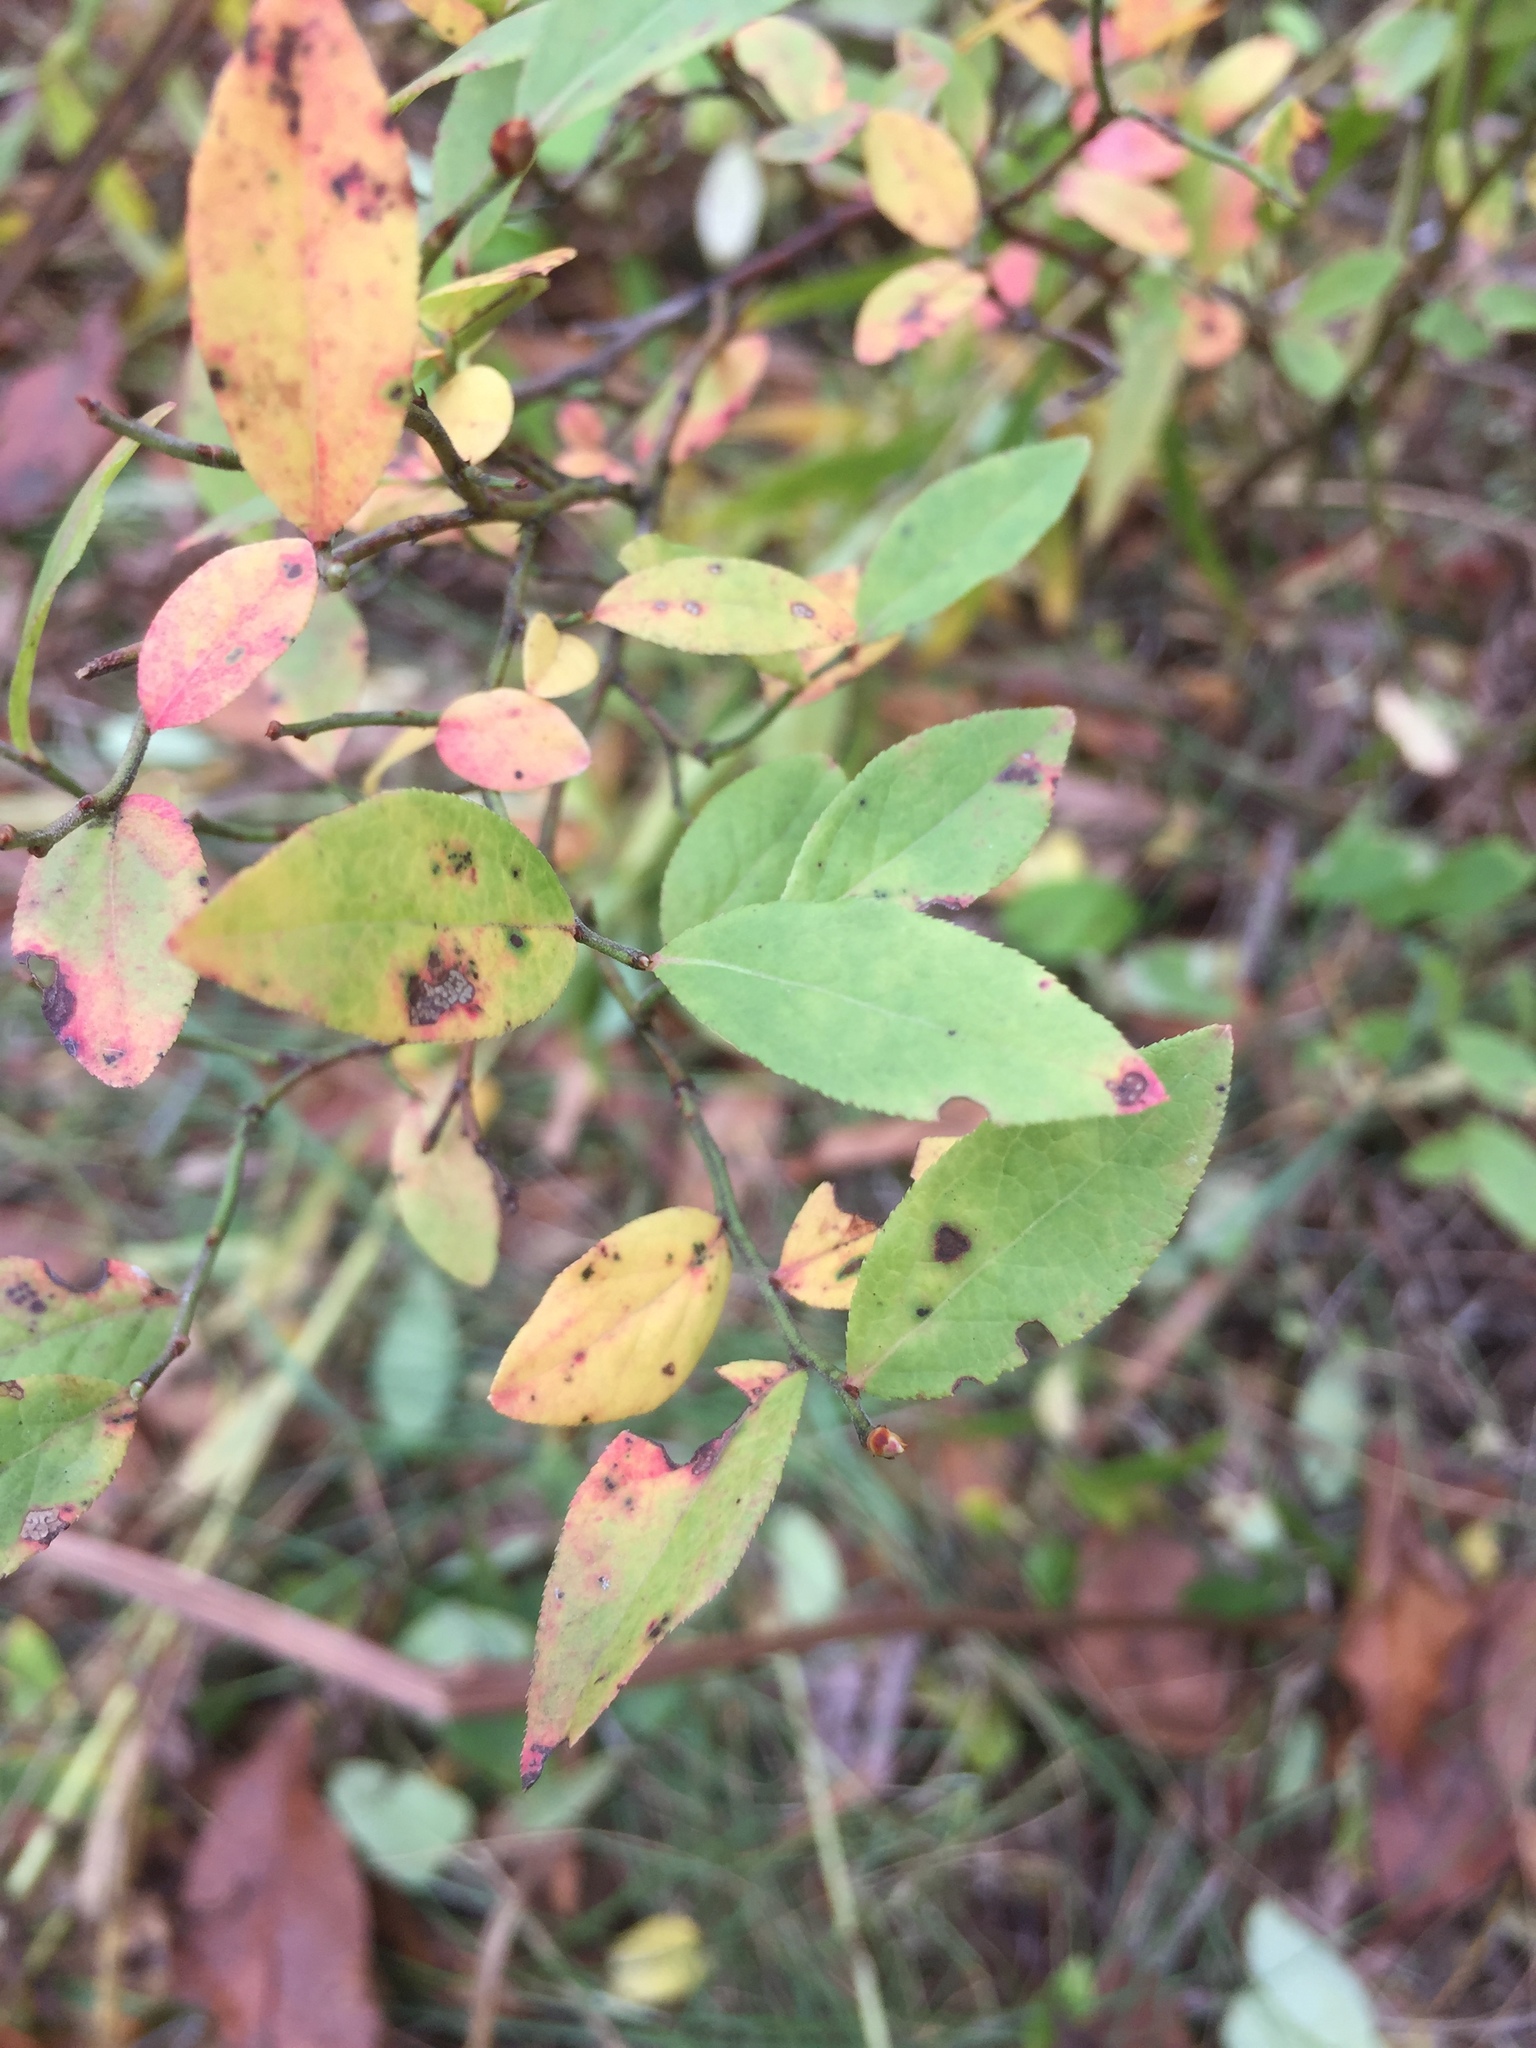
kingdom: Plantae
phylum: Tracheophyta
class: Magnoliopsida
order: Ericales
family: Ericaceae
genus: Vaccinium
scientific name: Vaccinium angustifolium
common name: Early lowbush blueberry
